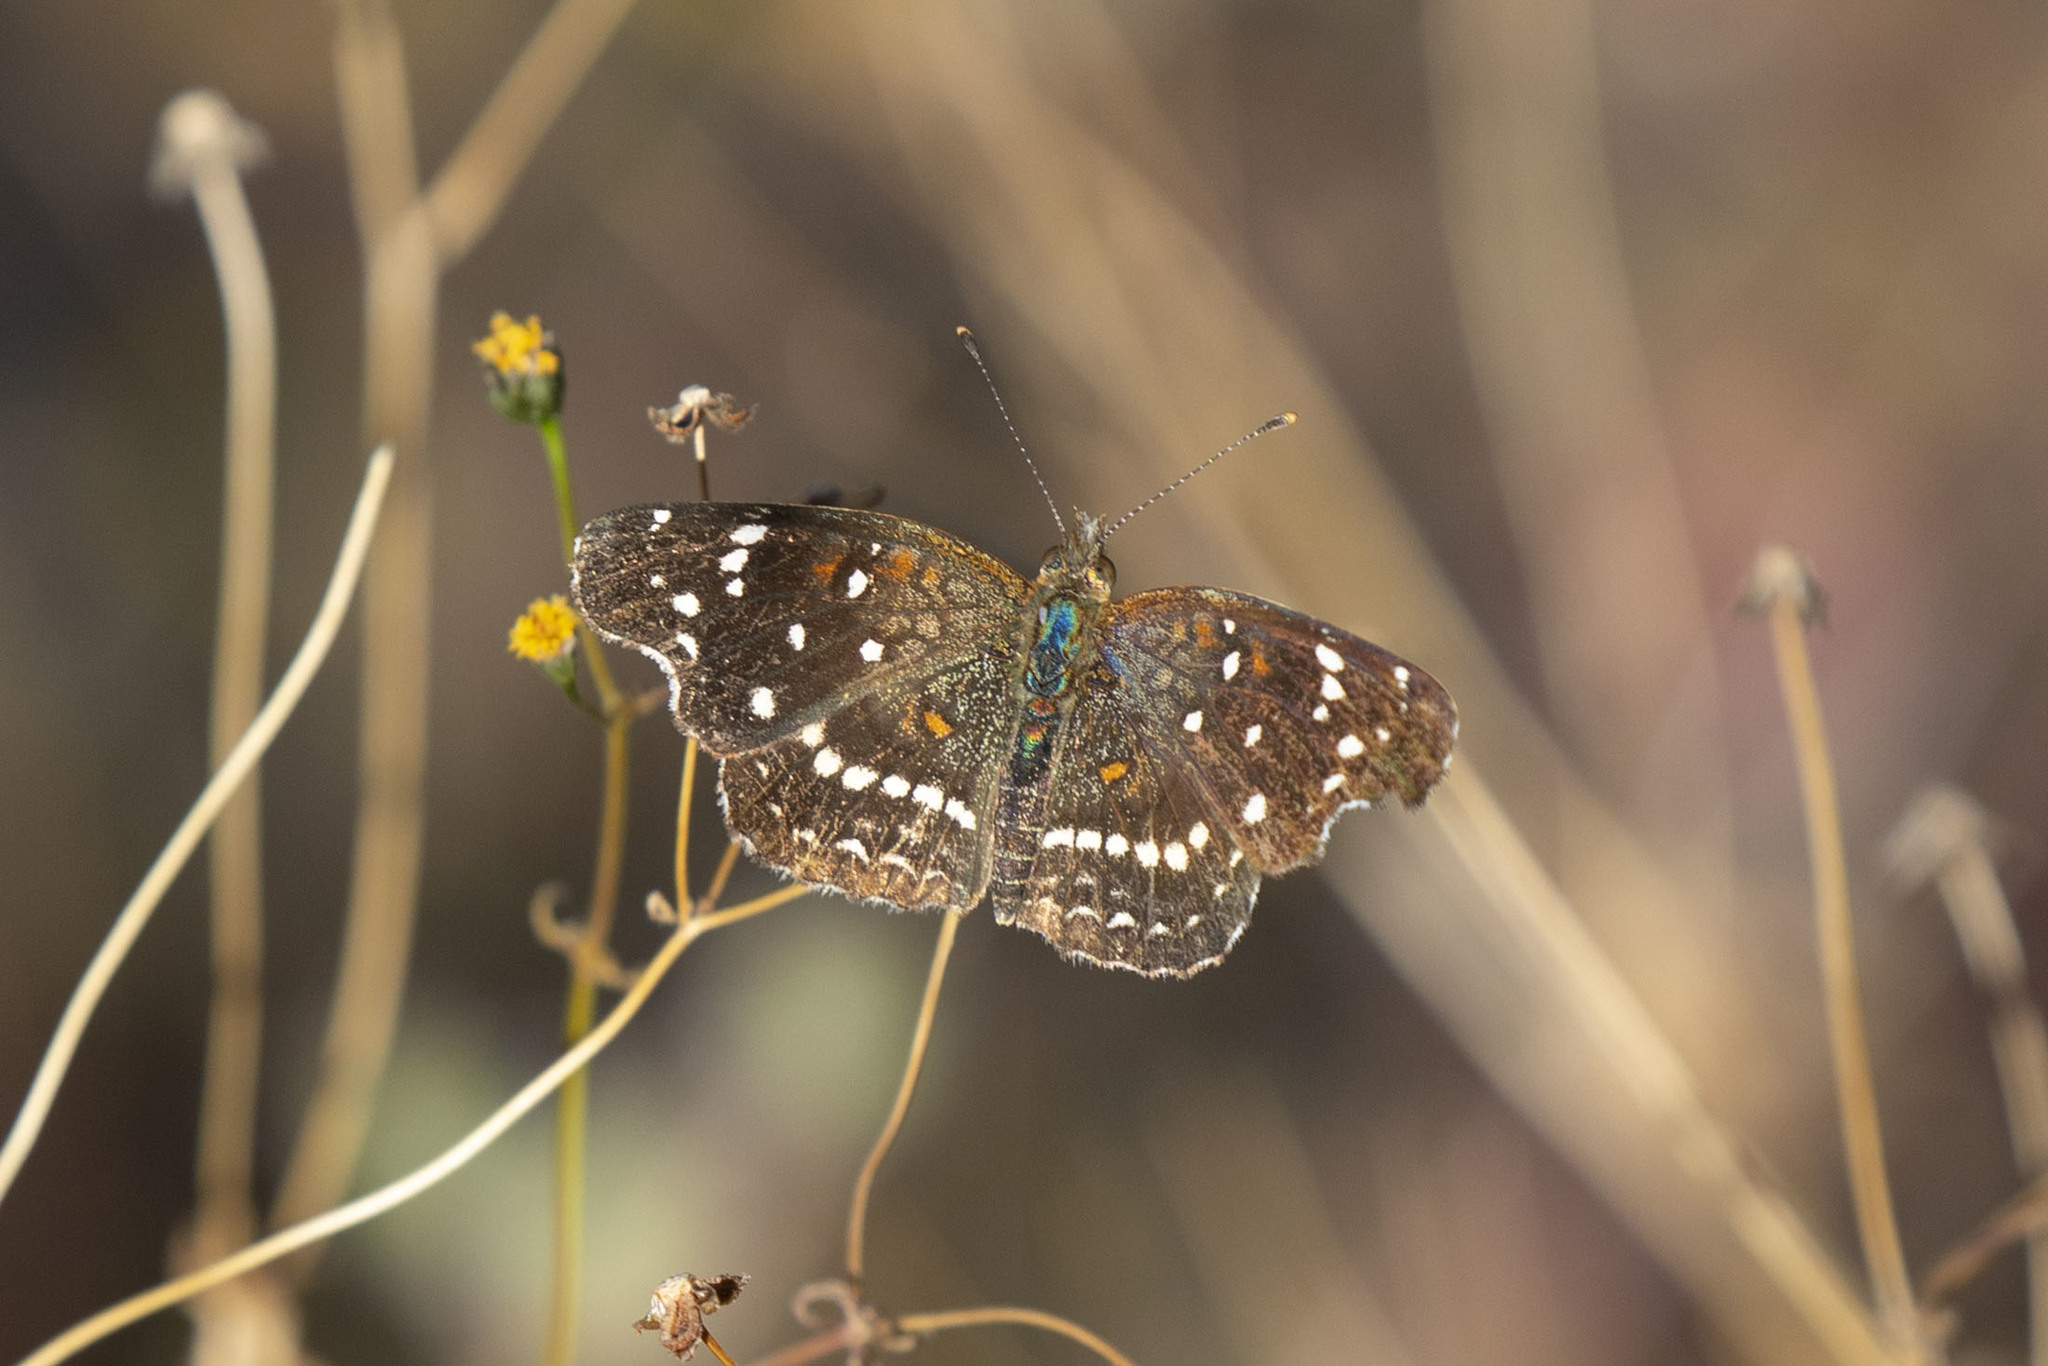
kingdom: Animalia
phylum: Arthropoda
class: Insecta
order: Lepidoptera
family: Nymphalidae
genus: Anthanassa
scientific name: Anthanassa texana
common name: Texan crescent
